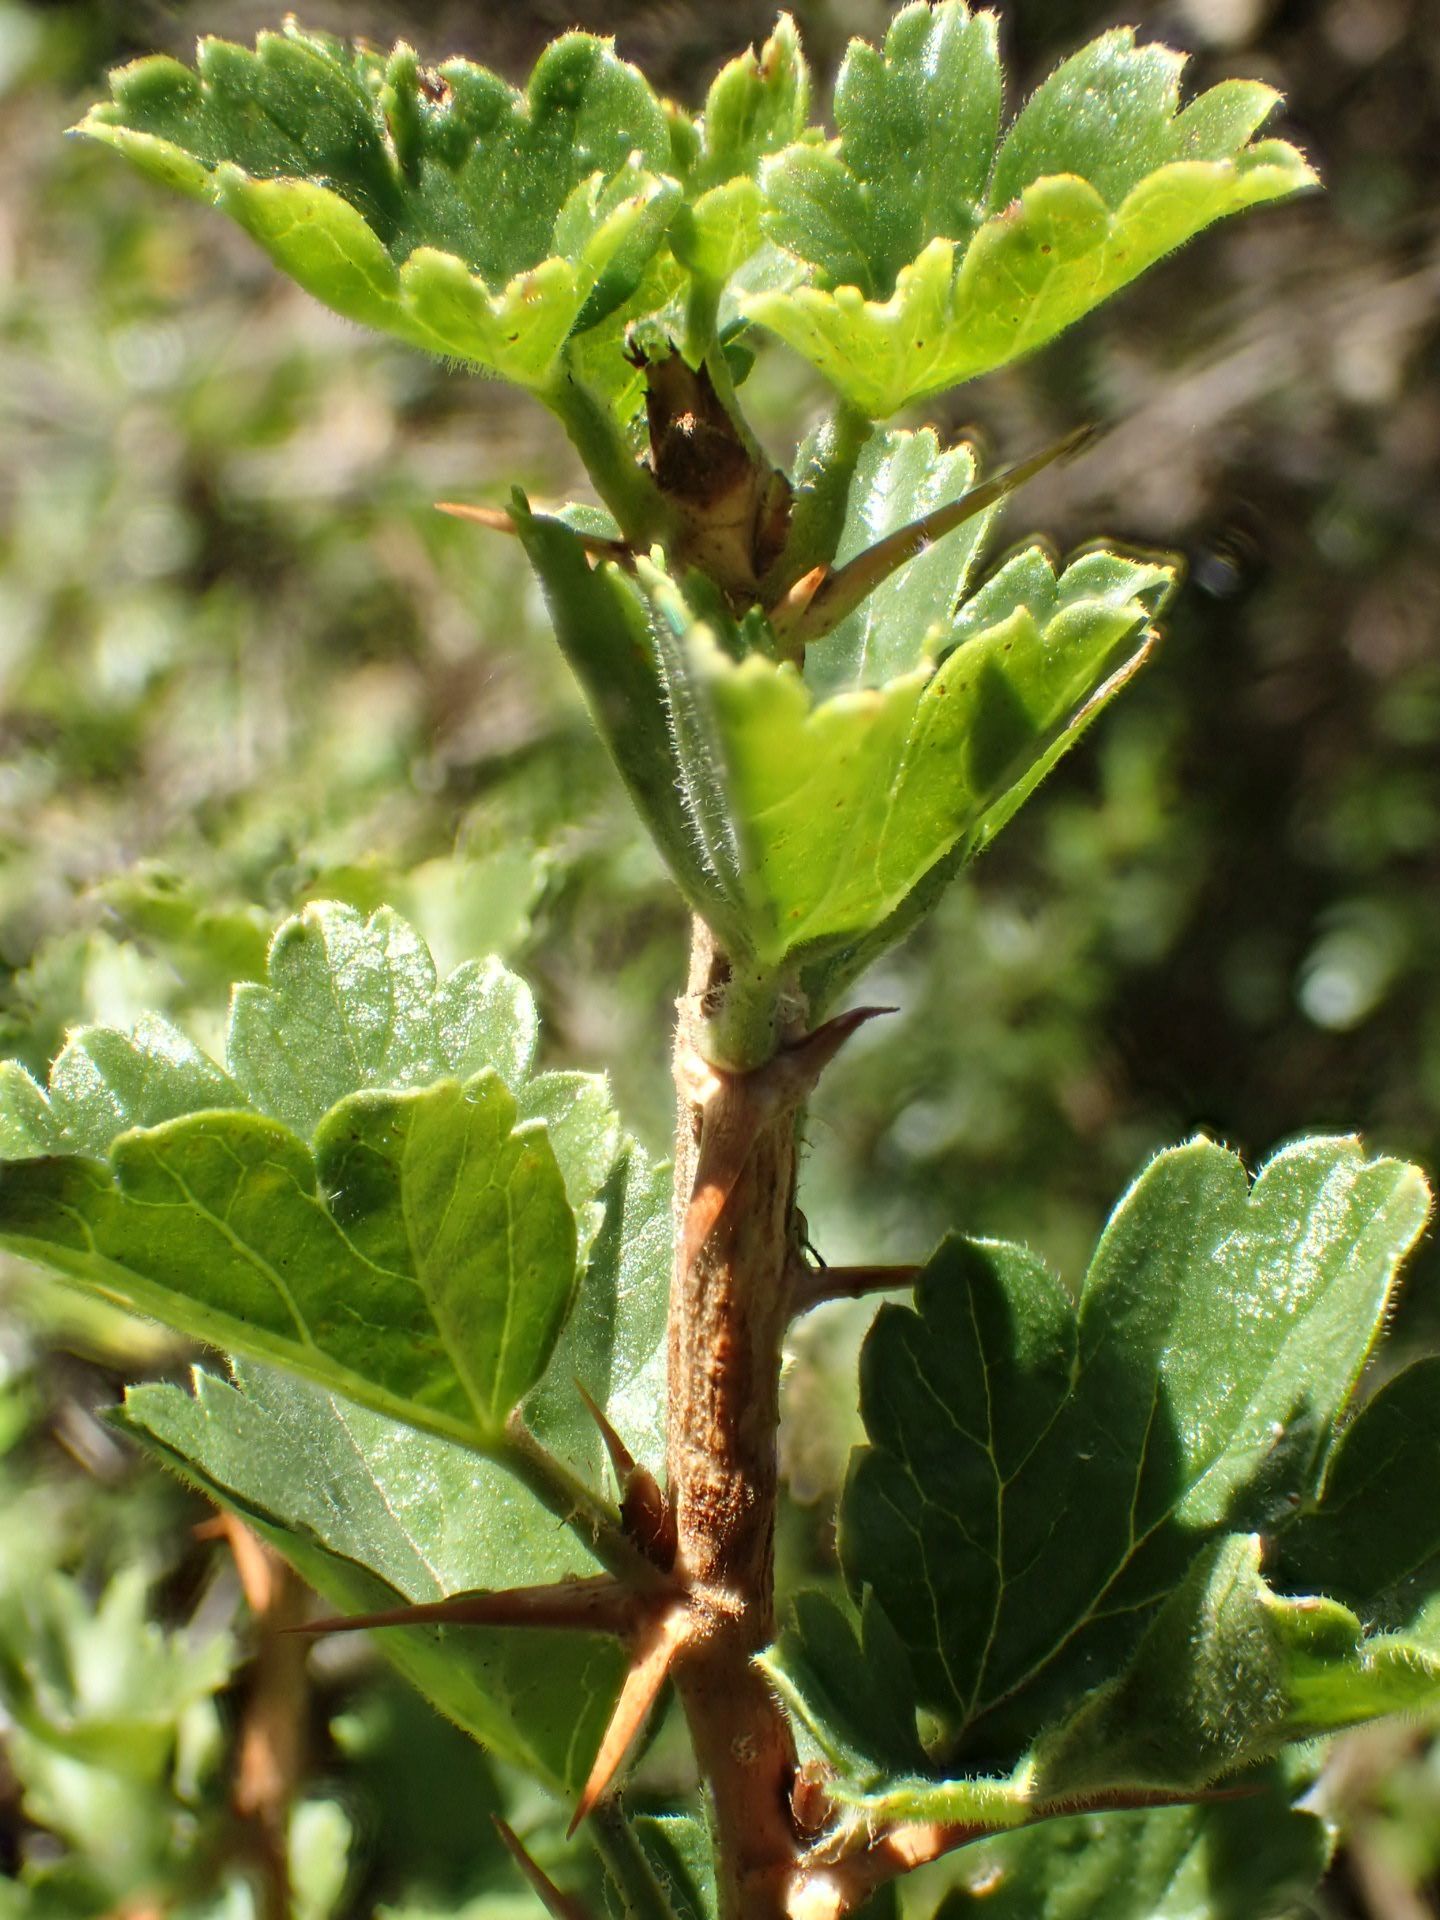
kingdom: Plantae
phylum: Tracheophyta
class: Magnoliopsida
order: Saxifragales
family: Grossulariaceae
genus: Ribes
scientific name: Ribes uva-crispa
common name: Gooseberry
